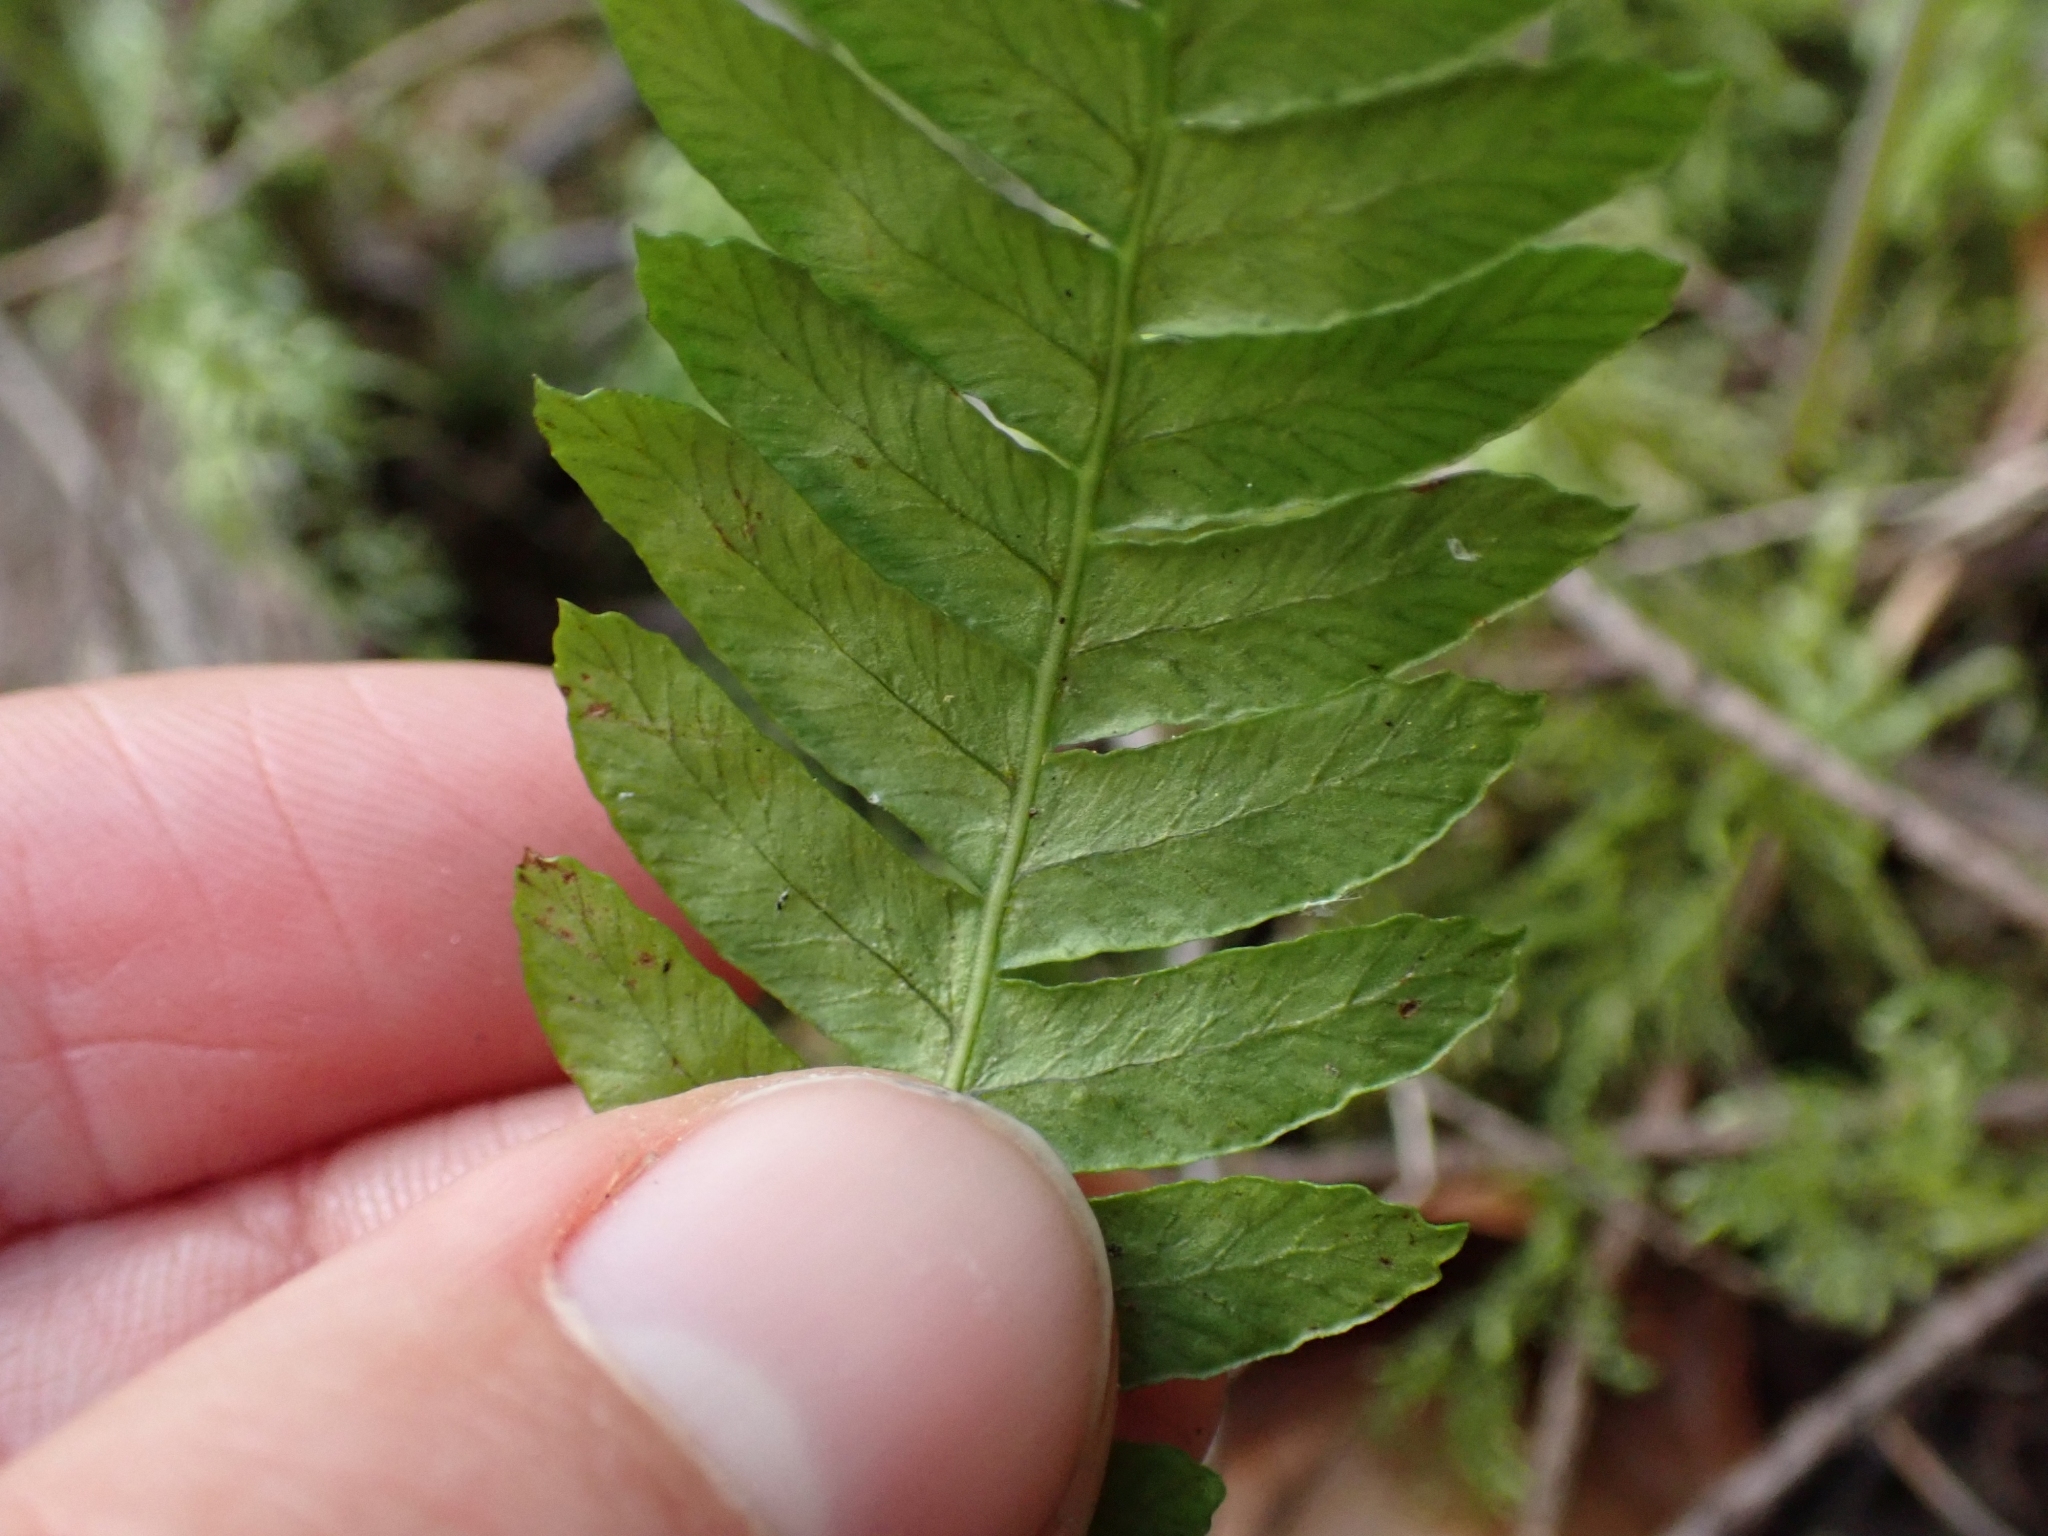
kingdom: Plantae
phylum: Tracheophyta
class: Polypodiopsida
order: Polypodiales
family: Blechnaceae
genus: Struthiopteris
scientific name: Struthiopteris spicant
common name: Deer fern
